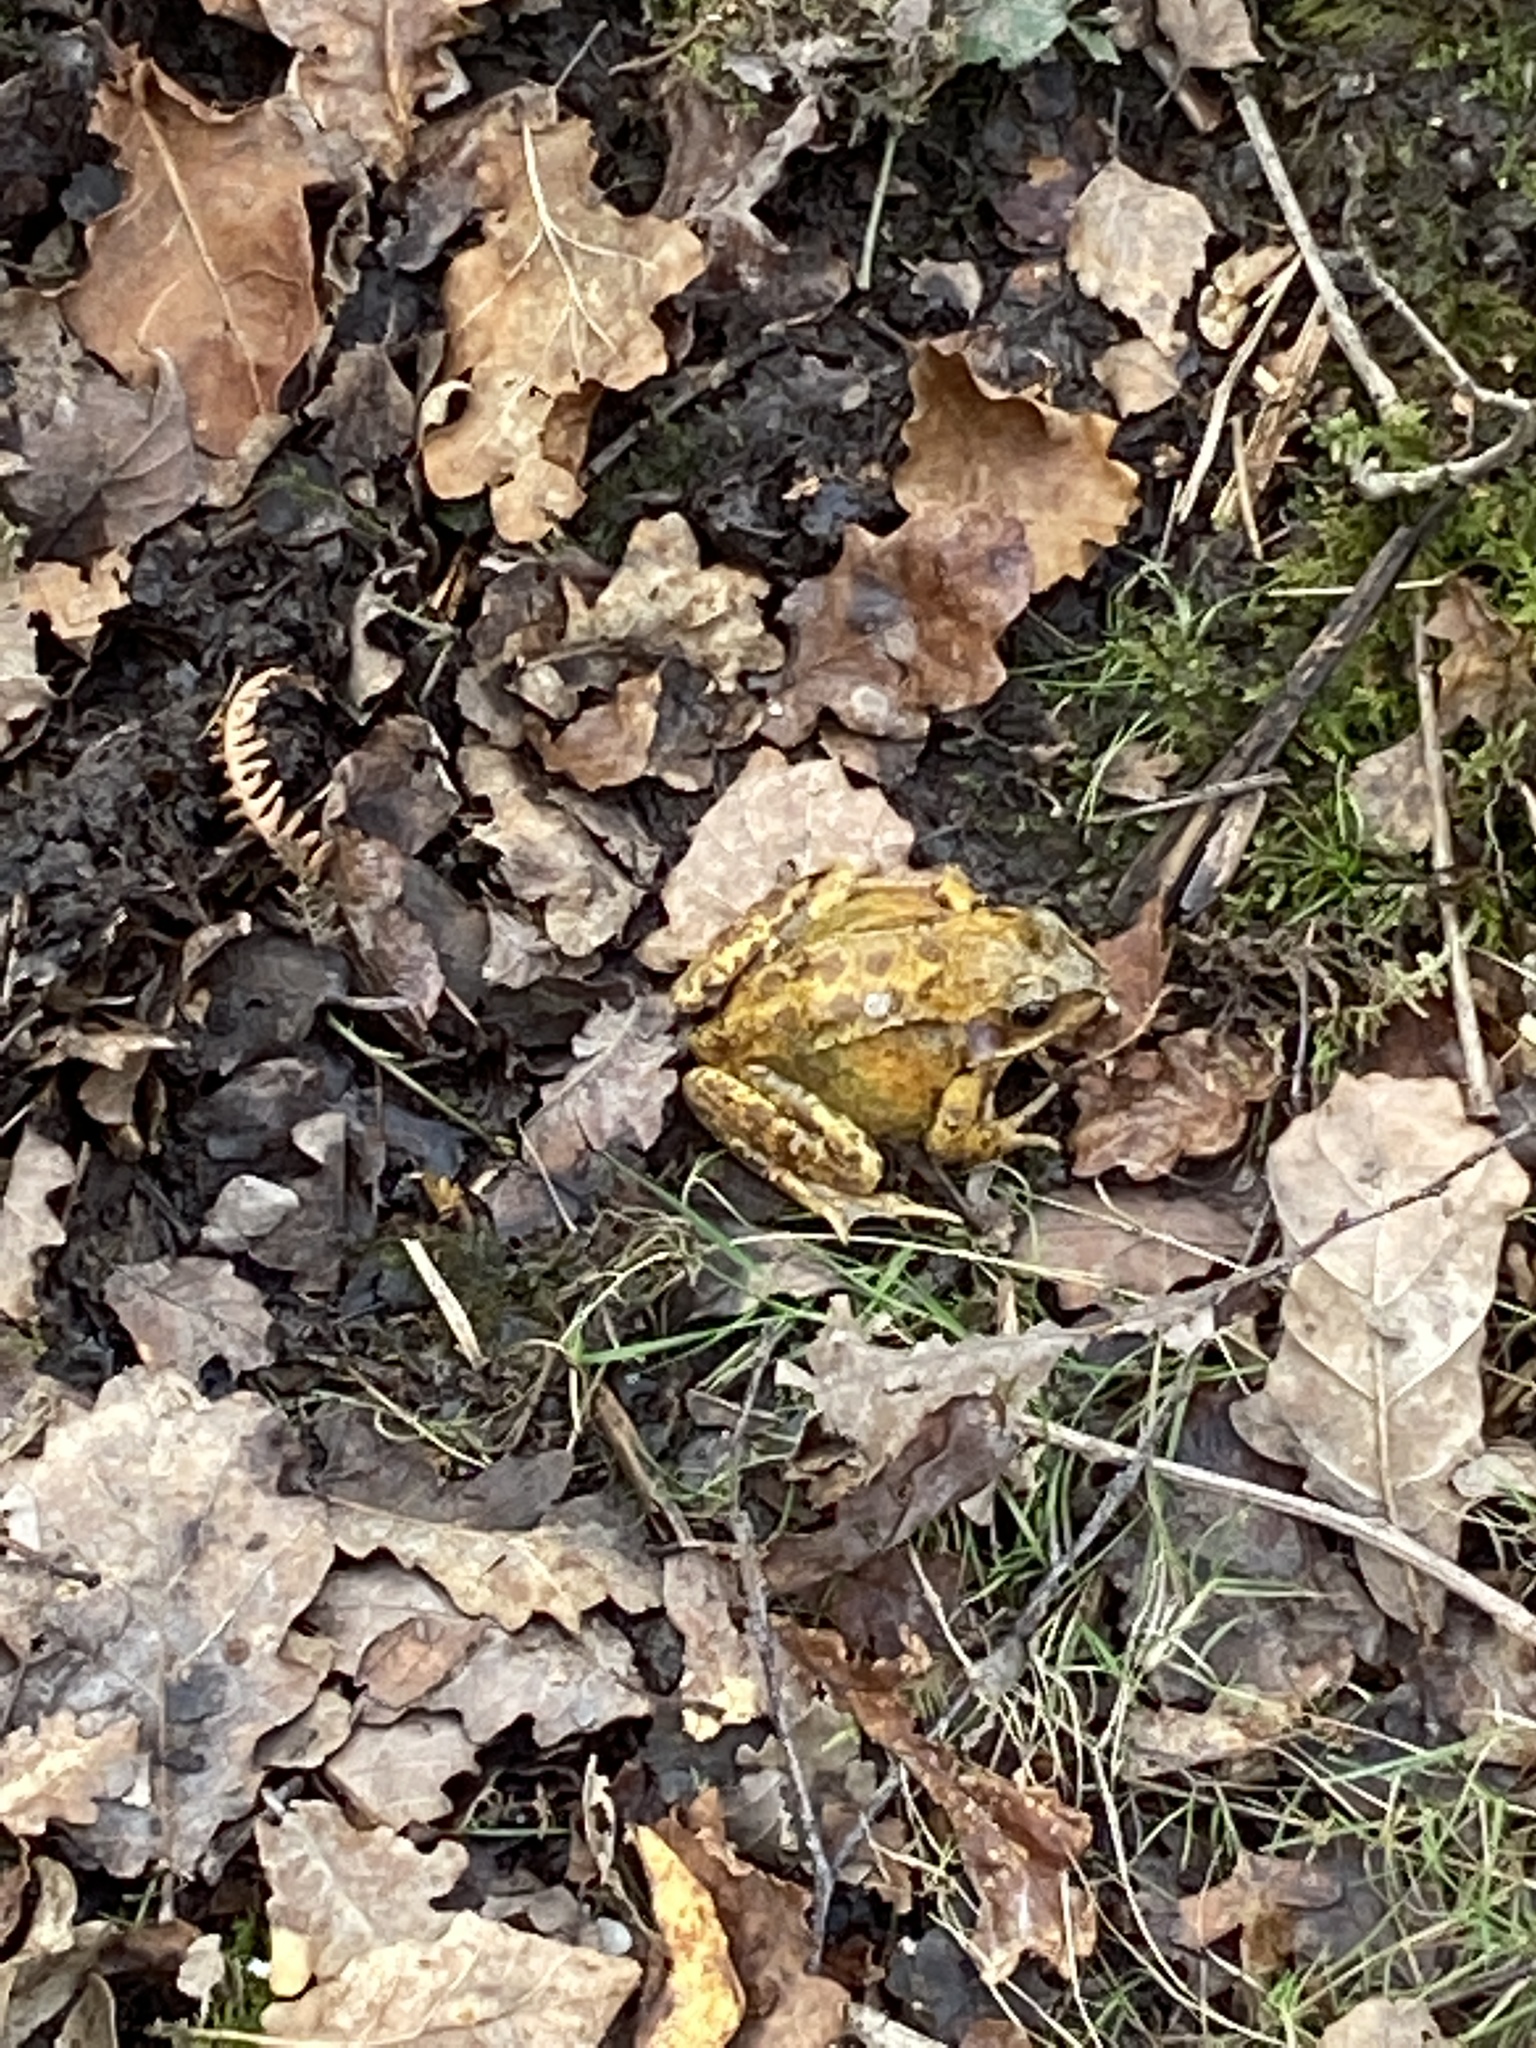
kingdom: Animalia
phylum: Chordata
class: Amphibia
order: Anura
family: Ranidae
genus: Rana
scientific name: Rana temporaria
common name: Common frog
